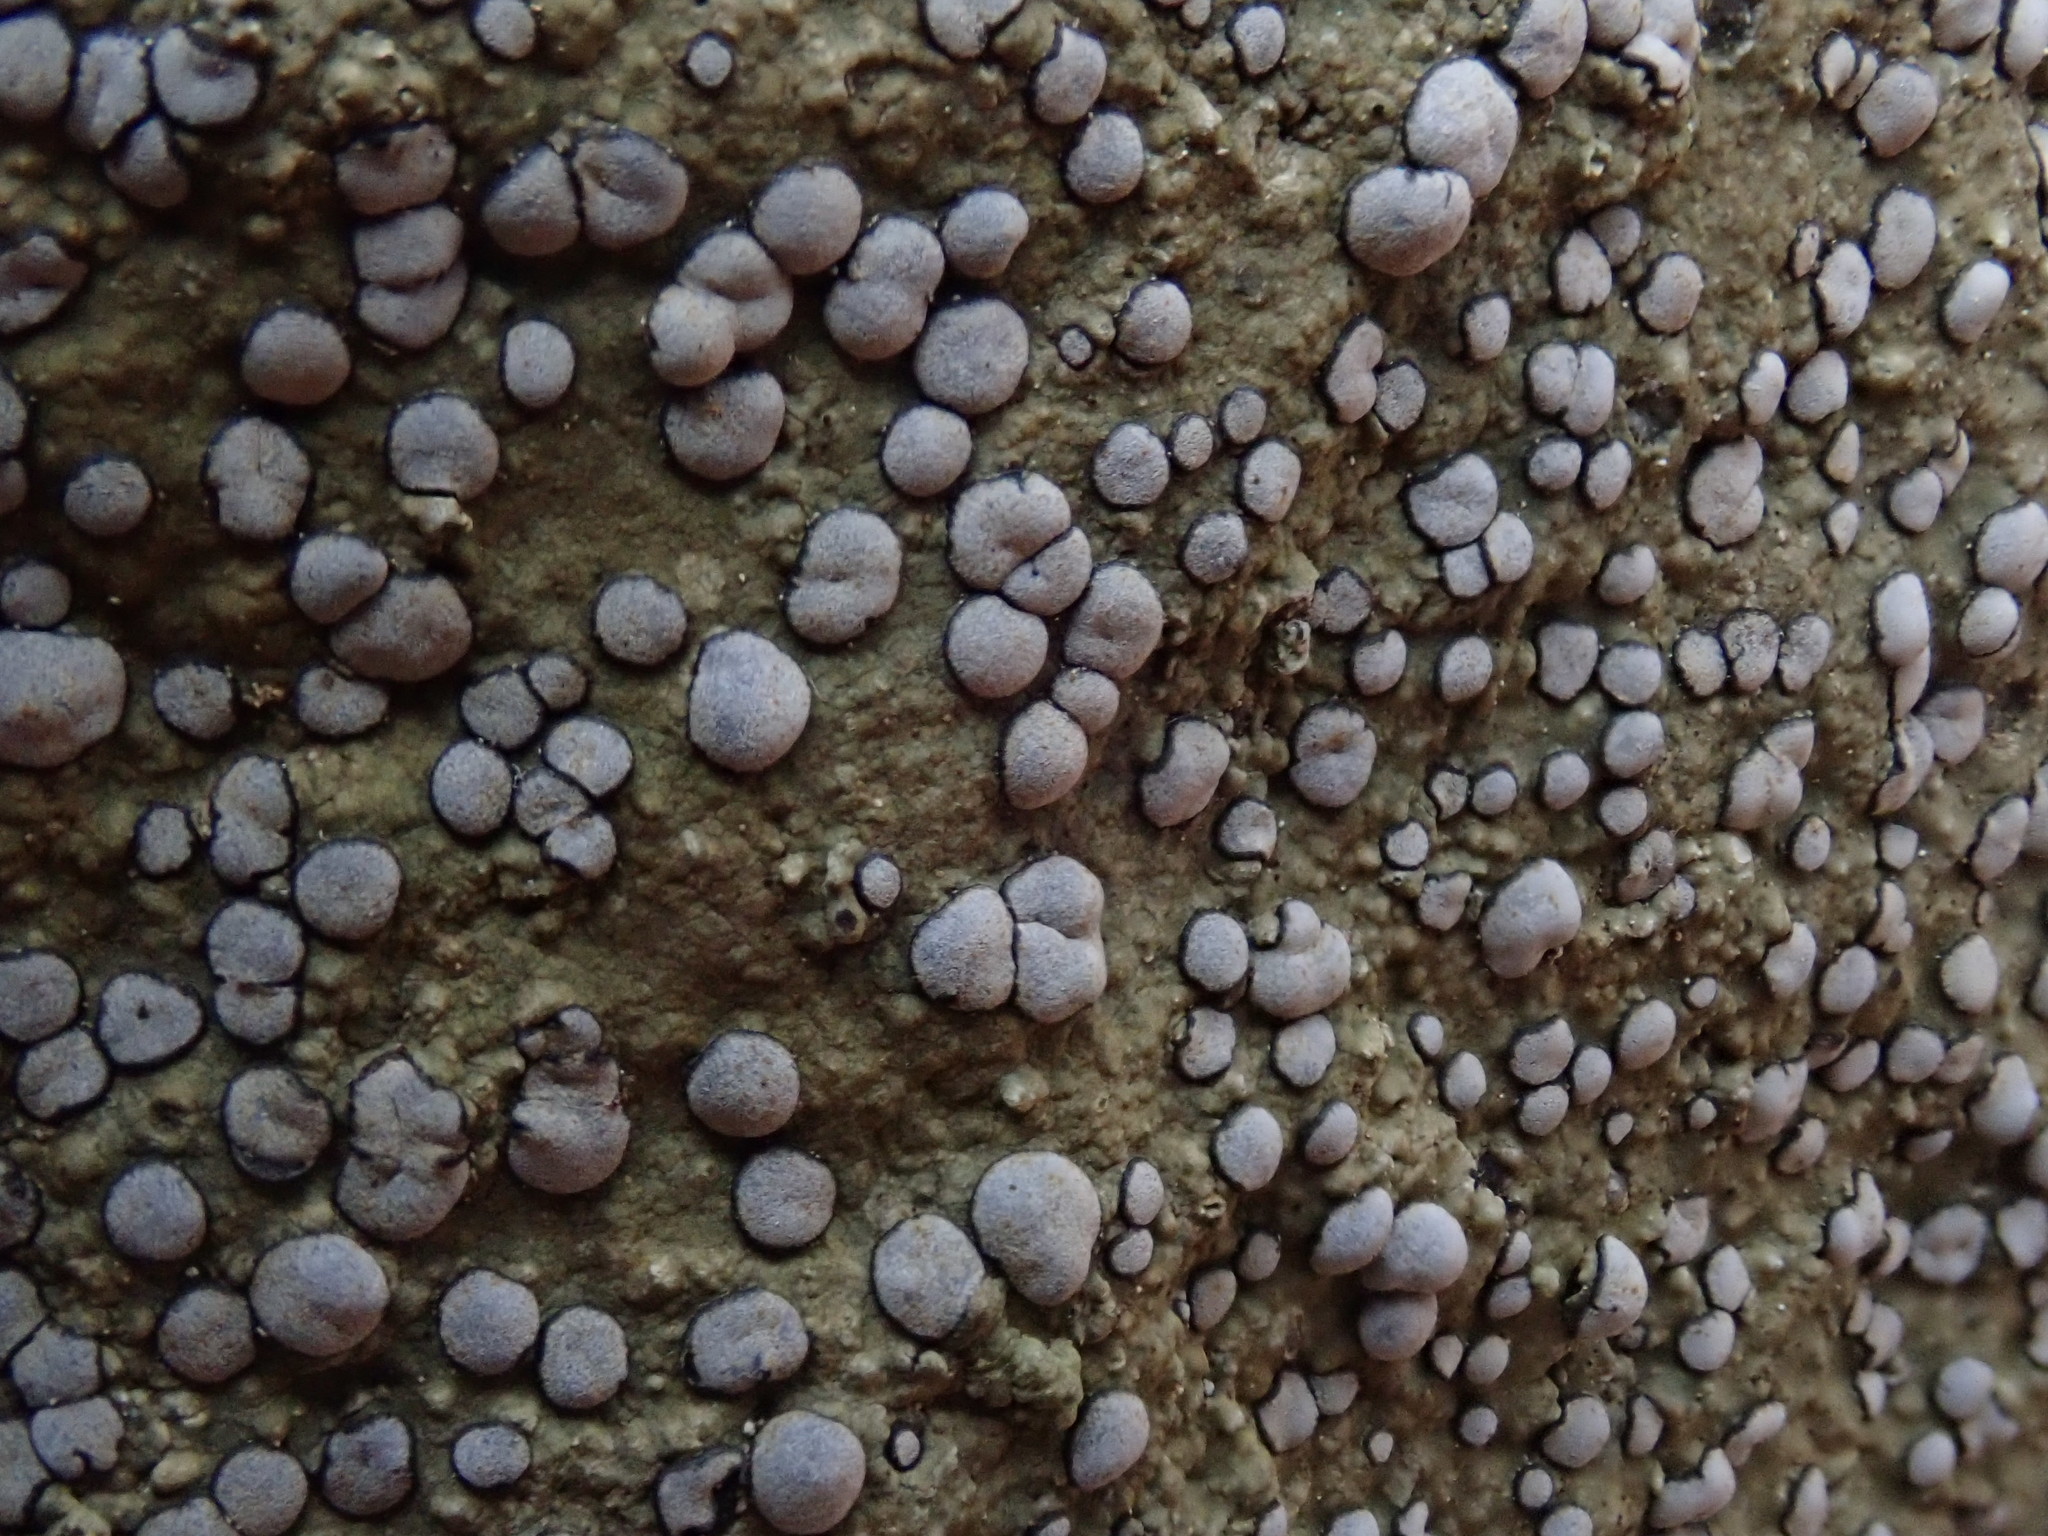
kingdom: Fungi
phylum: Ascomycota
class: Lecanoromycetes
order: Lecideales
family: Lecideaceae
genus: Porpidia
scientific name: Porpidia albocaerulescens
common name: Smokey-eyed boulder lichen
